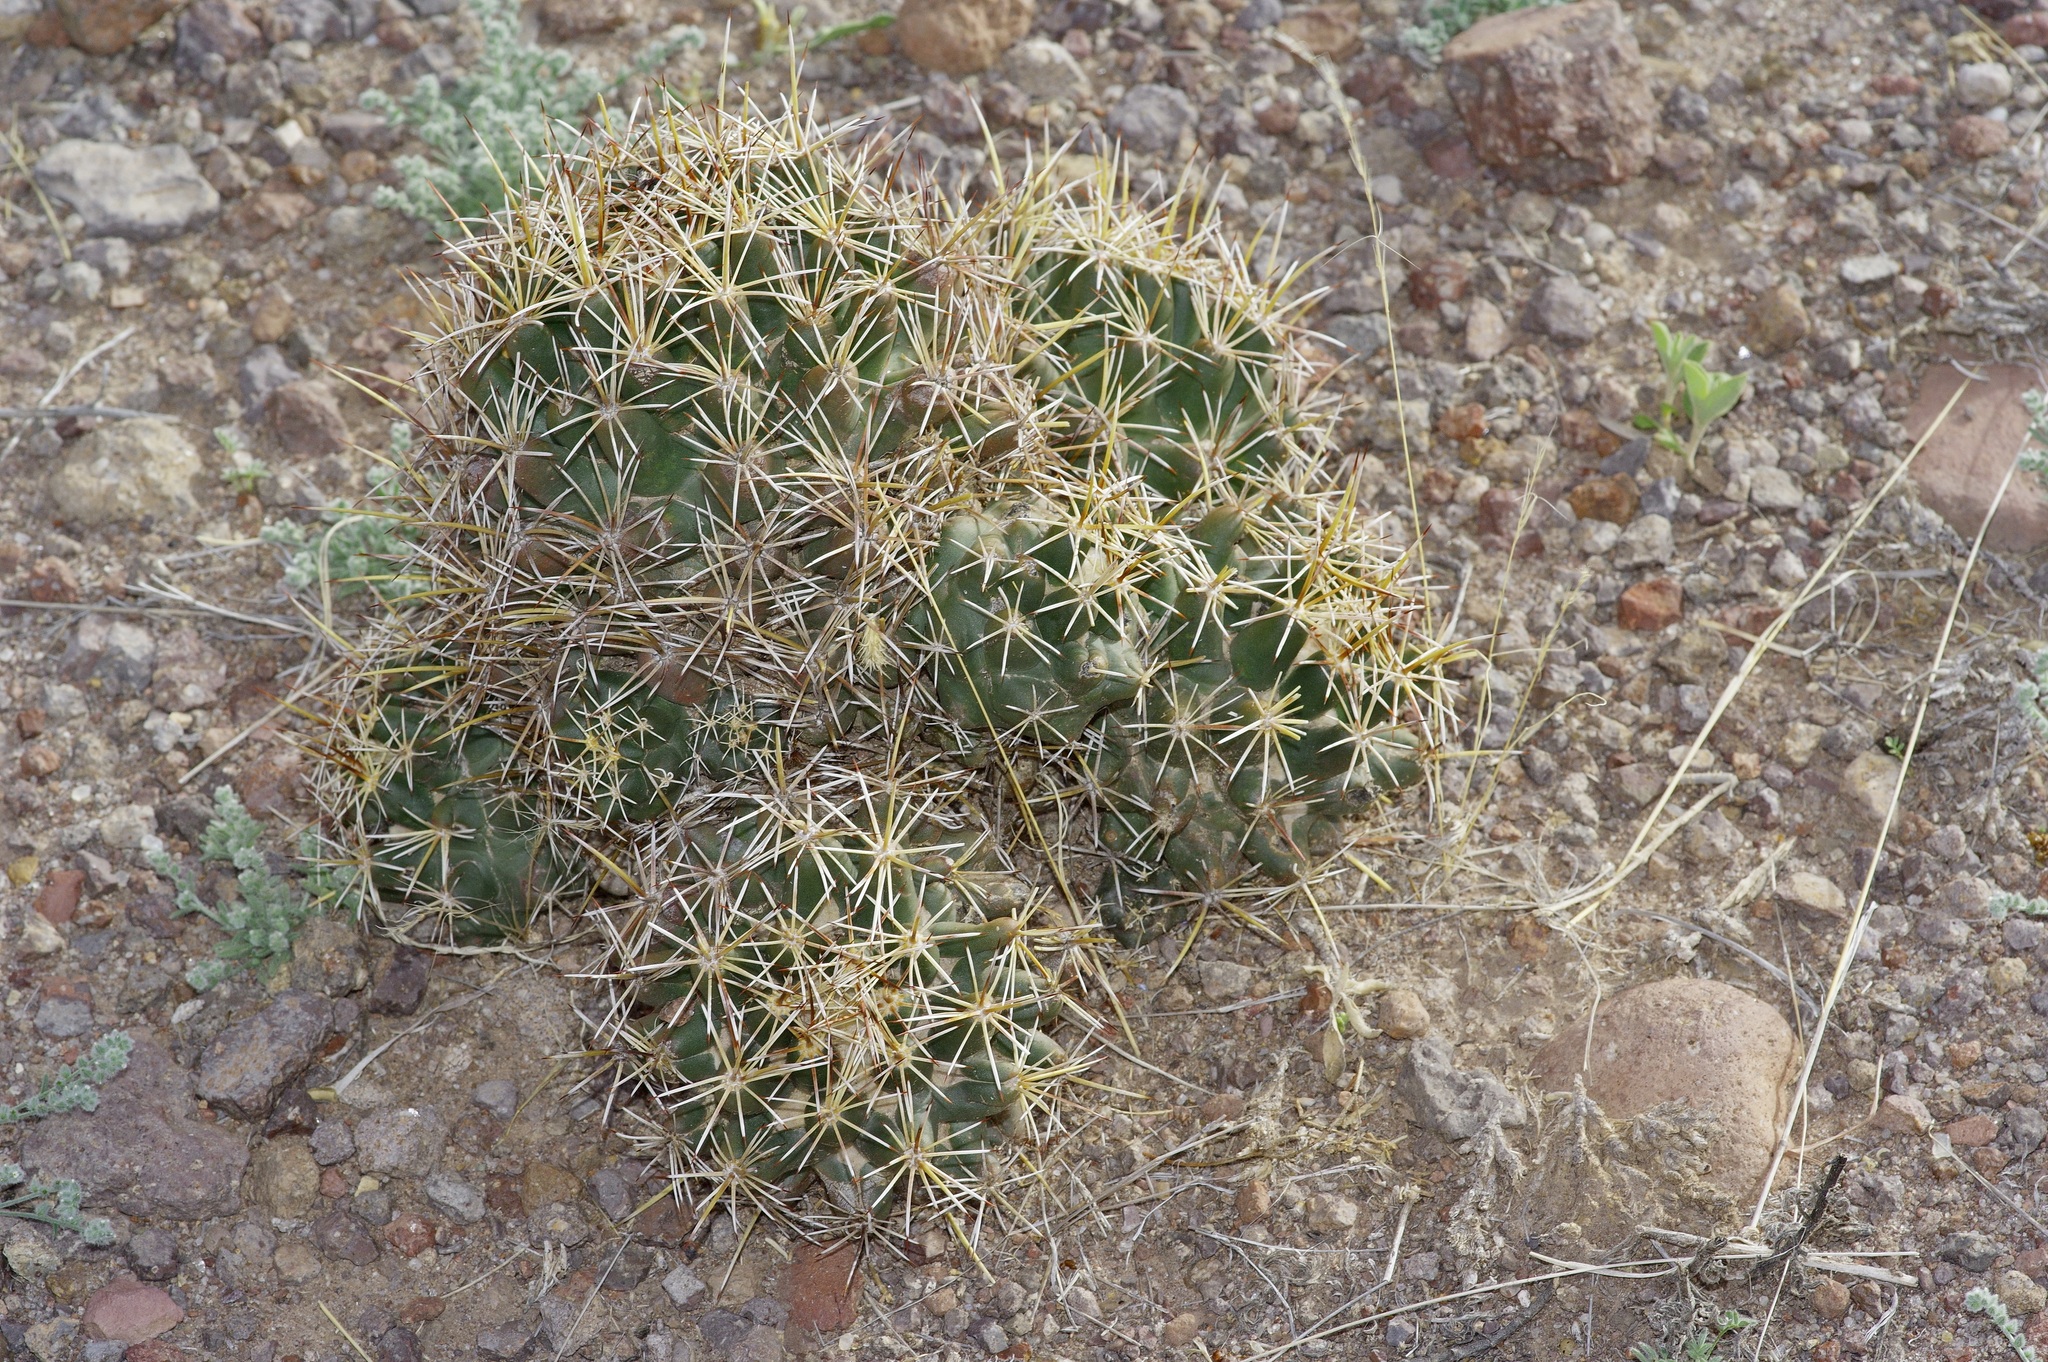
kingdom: Plantae
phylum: Tracheophyta
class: Magnoliopsida
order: Caryophyllales
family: Cactaceae
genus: Coryphantha
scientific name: Coryphantha robustispina
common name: Pima pineapple cactus
